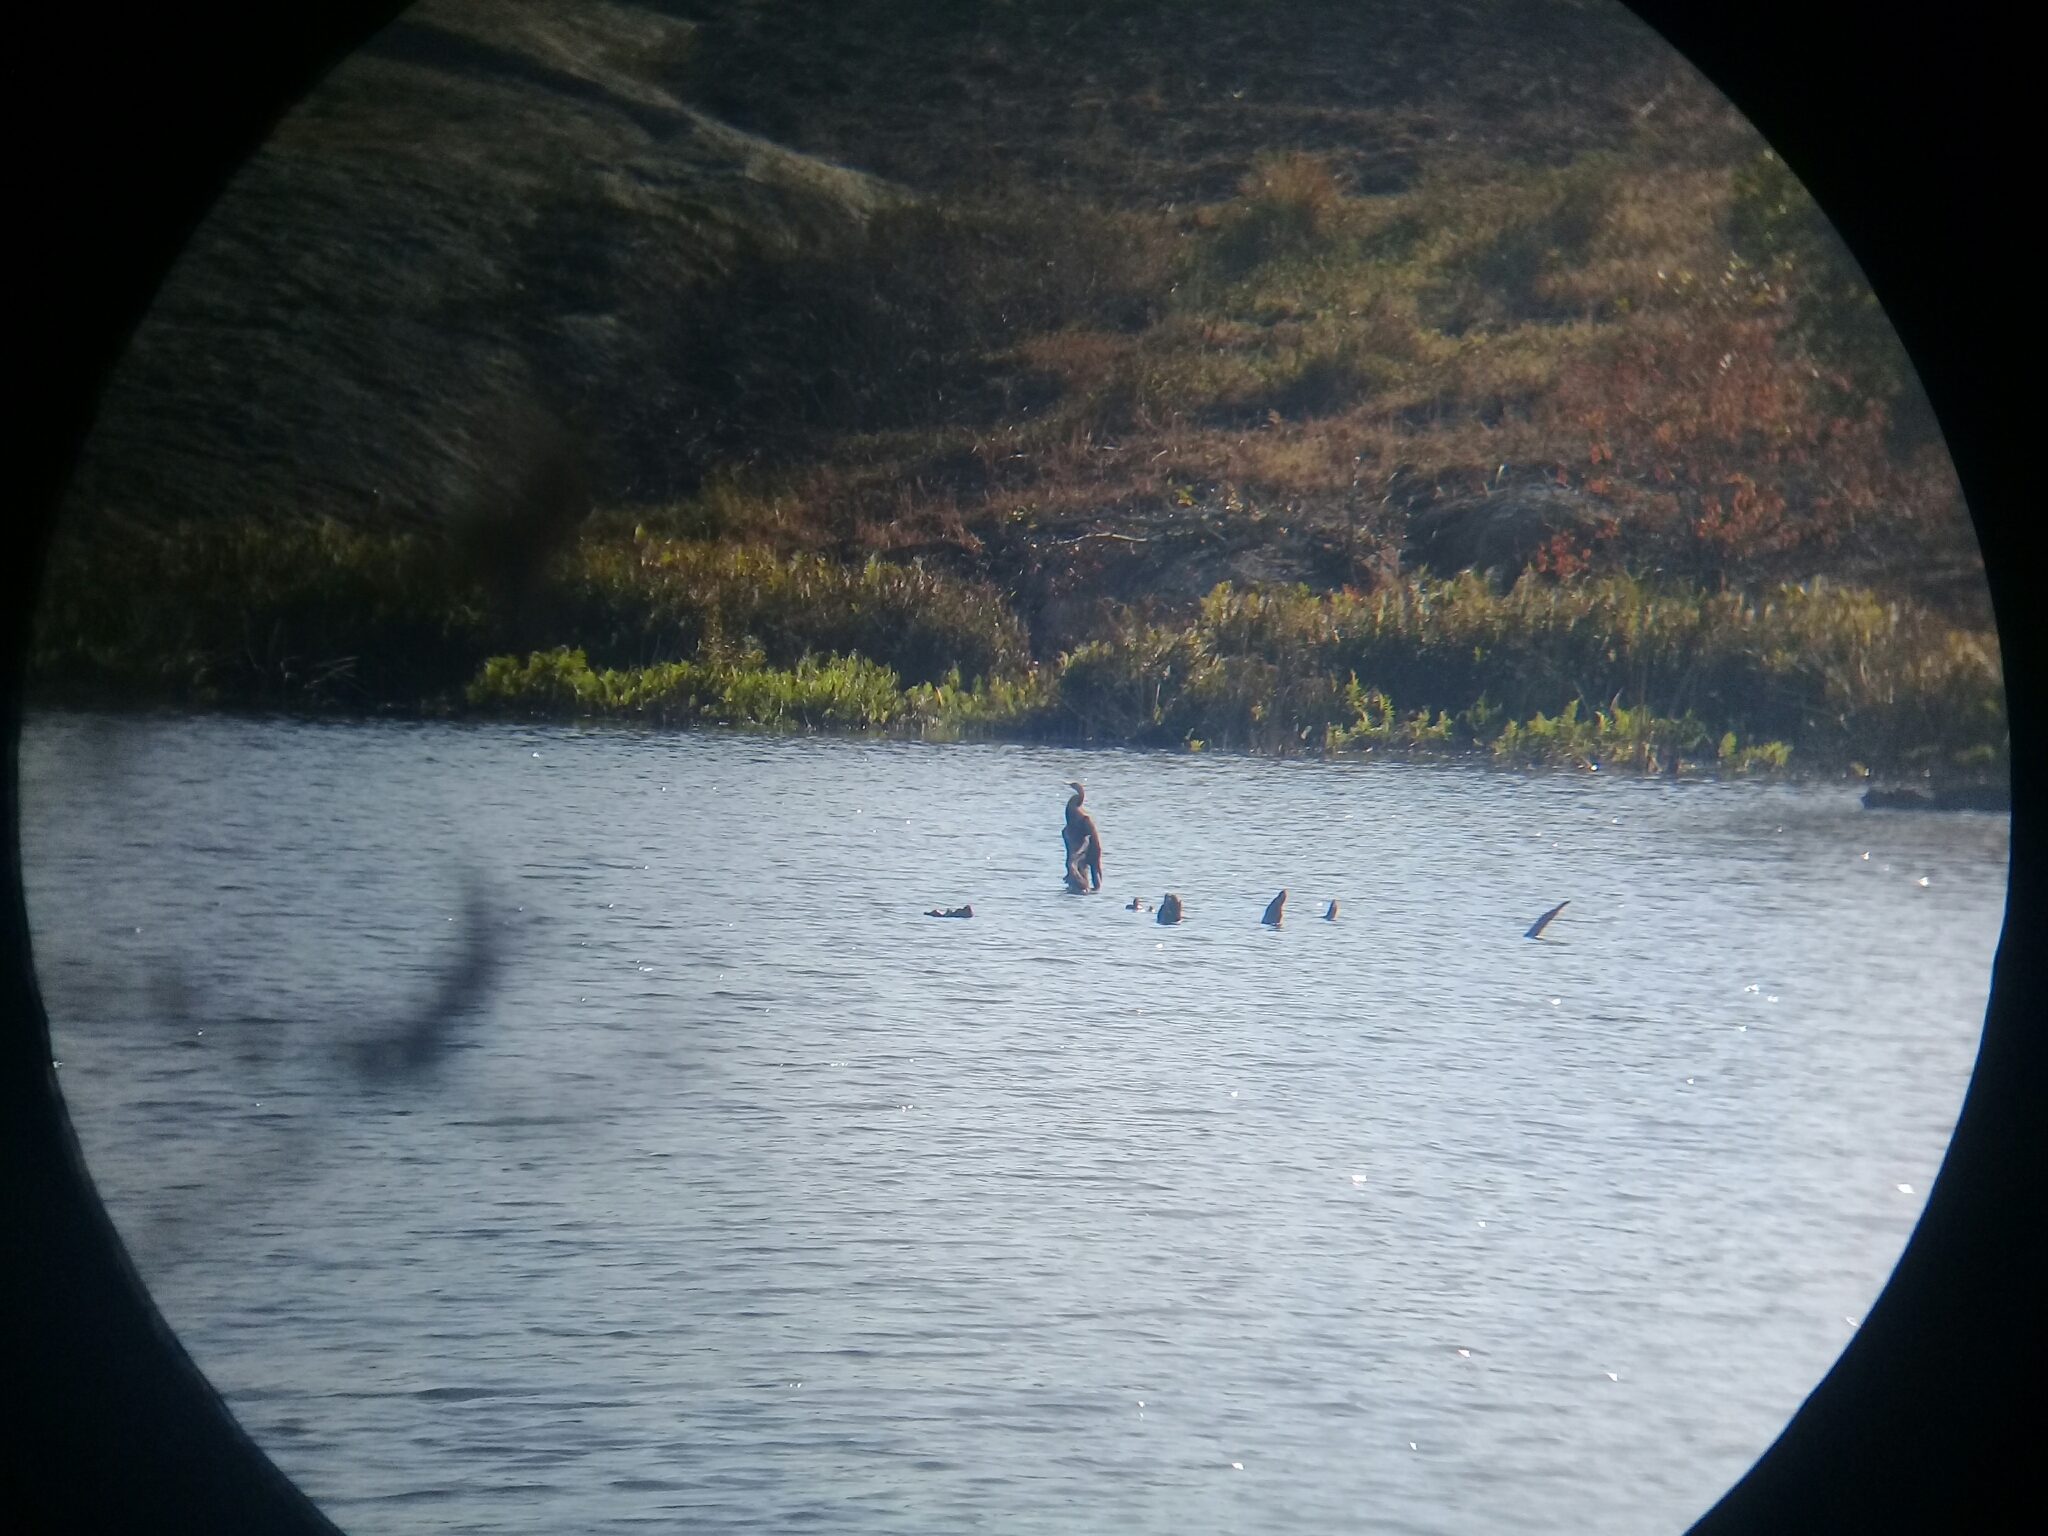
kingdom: Animalia
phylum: Chordata
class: Aves
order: Suliformes
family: Anhingidae
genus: Anhinga
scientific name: Anhinga rufa
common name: African darter
